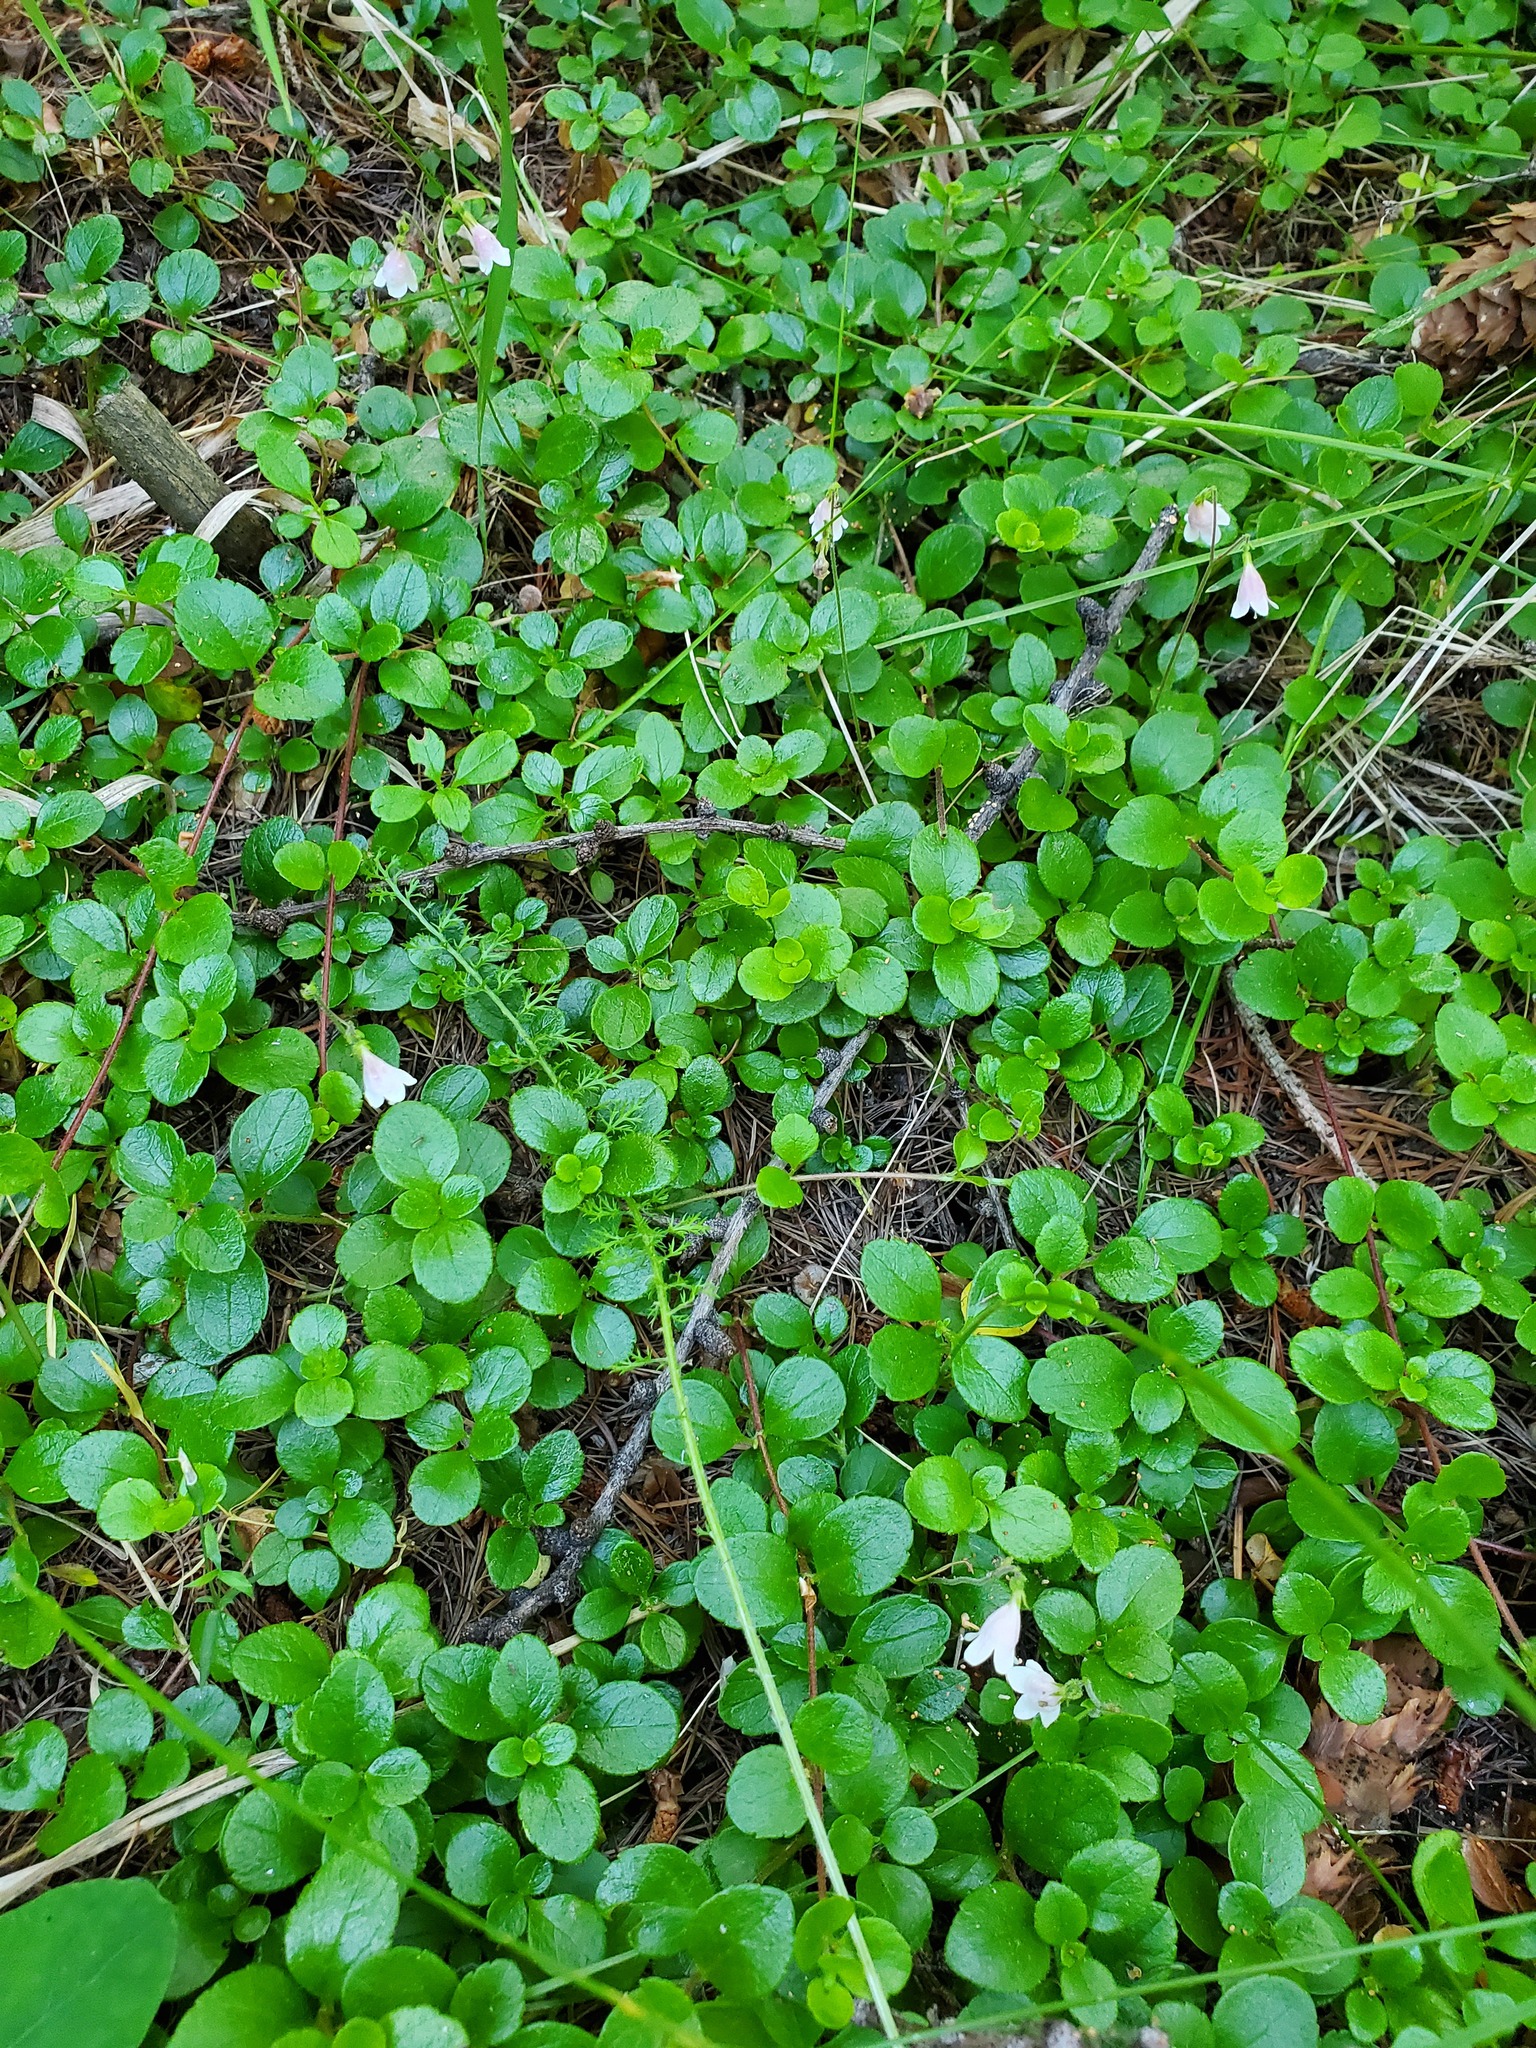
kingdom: Plantae
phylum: Tracheophyta
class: Magnoliopsida
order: Dipsacales
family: Caprifoliaceae
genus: Linnaea
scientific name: Linnaea borealis
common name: Twinflower
